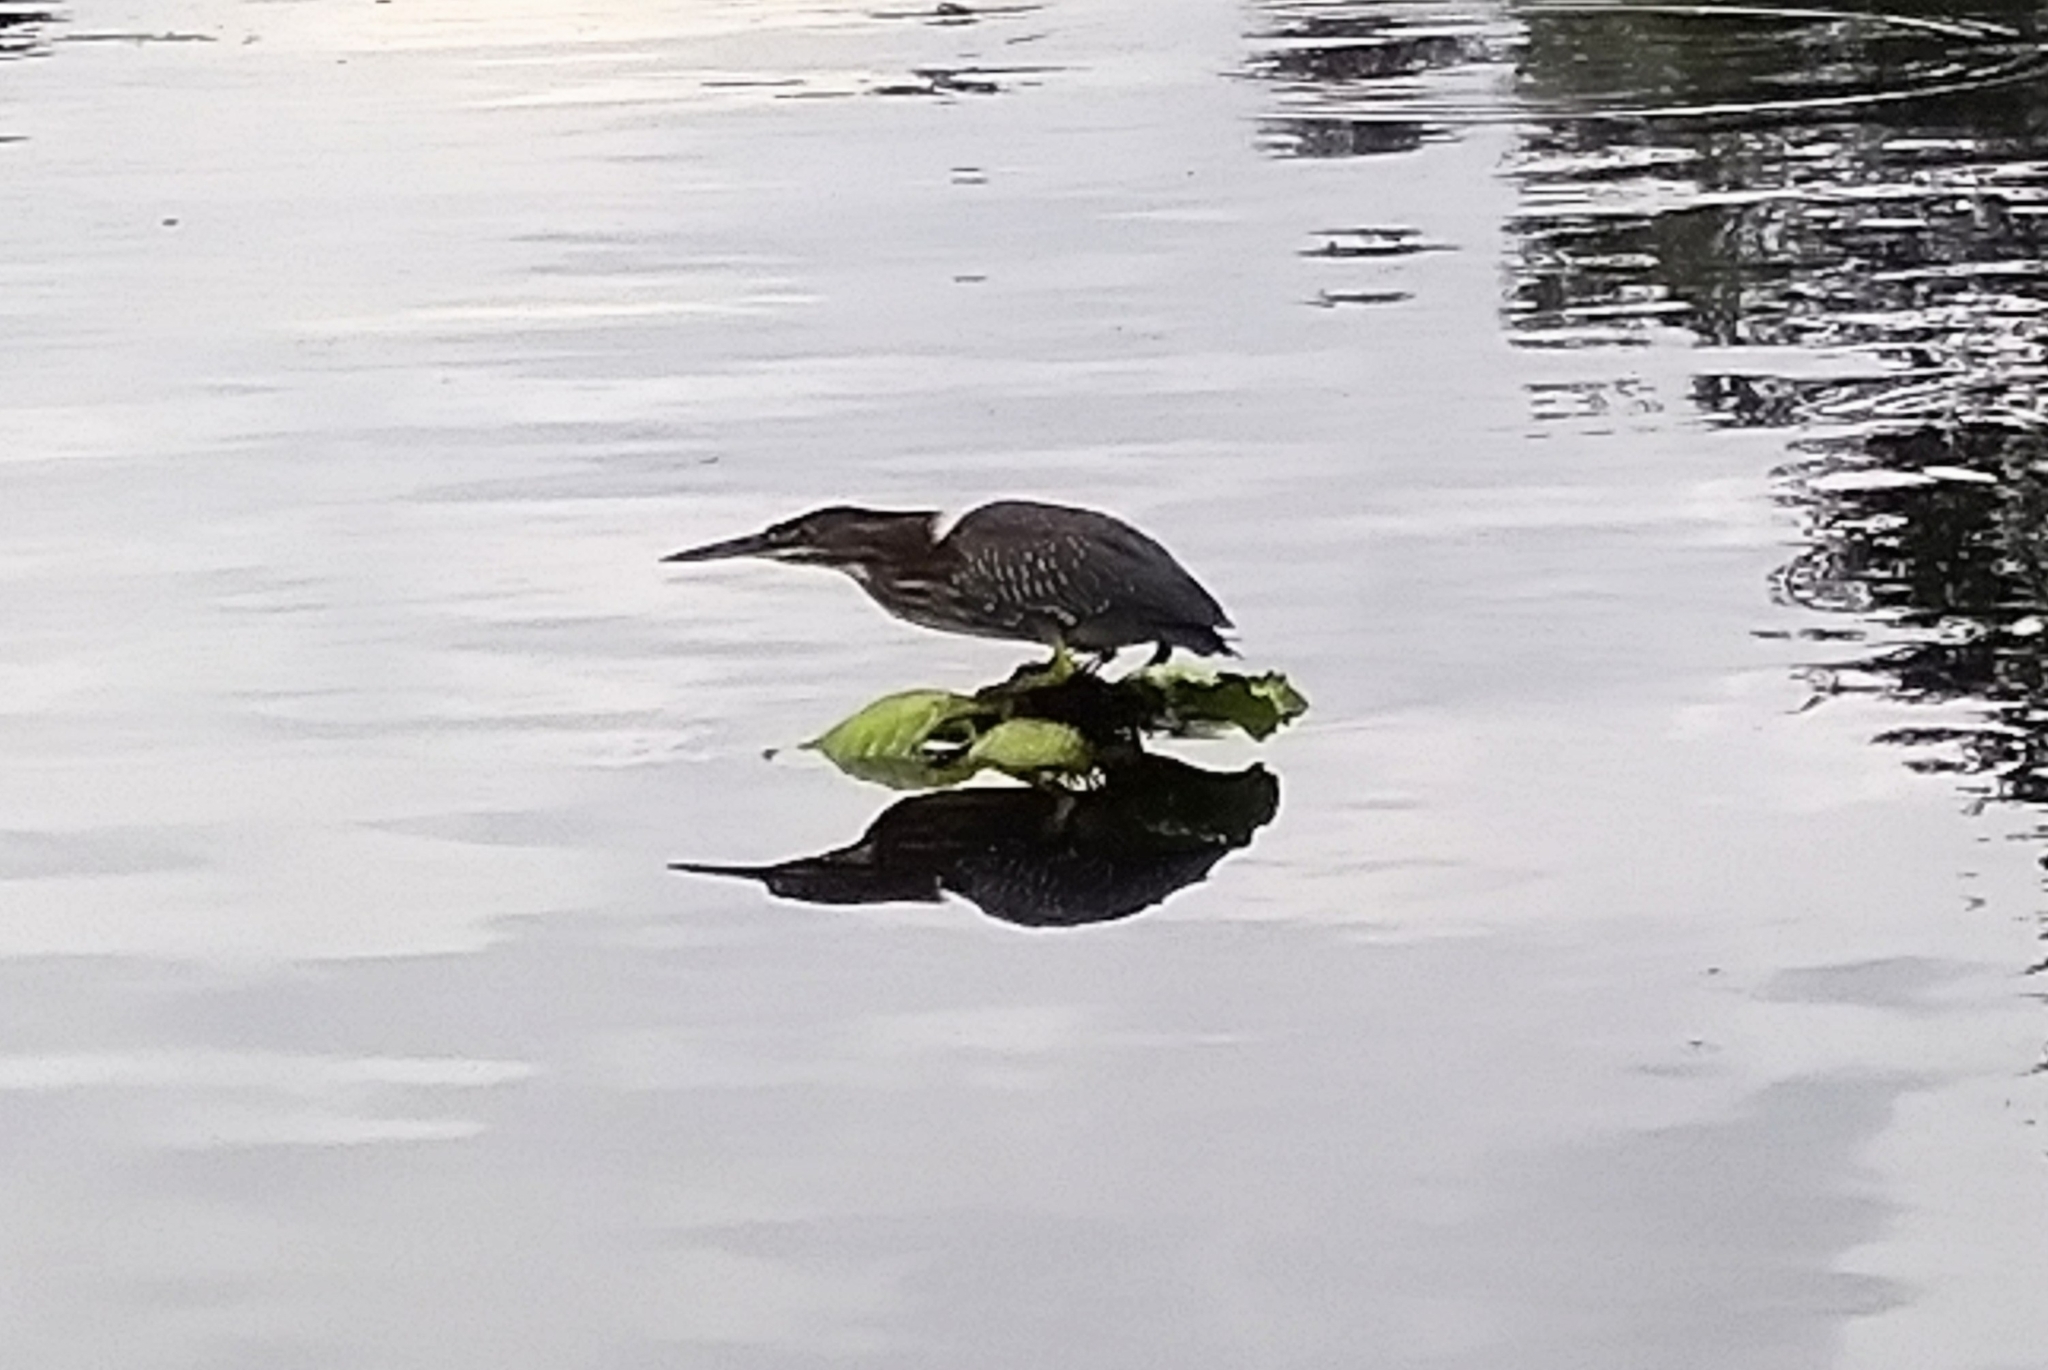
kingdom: Animalia
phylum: Chordata
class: Aves
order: Pelecaniformes
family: Ardeidae
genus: Butorides
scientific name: Butorides virescens
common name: Green heron
